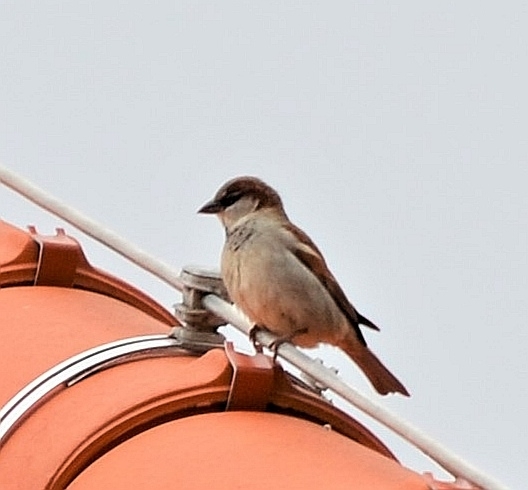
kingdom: Animalia
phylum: Chordata
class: Aves
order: Passeriformes
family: Passeridae
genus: Passer
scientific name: Passer domesticus
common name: House sparrow
